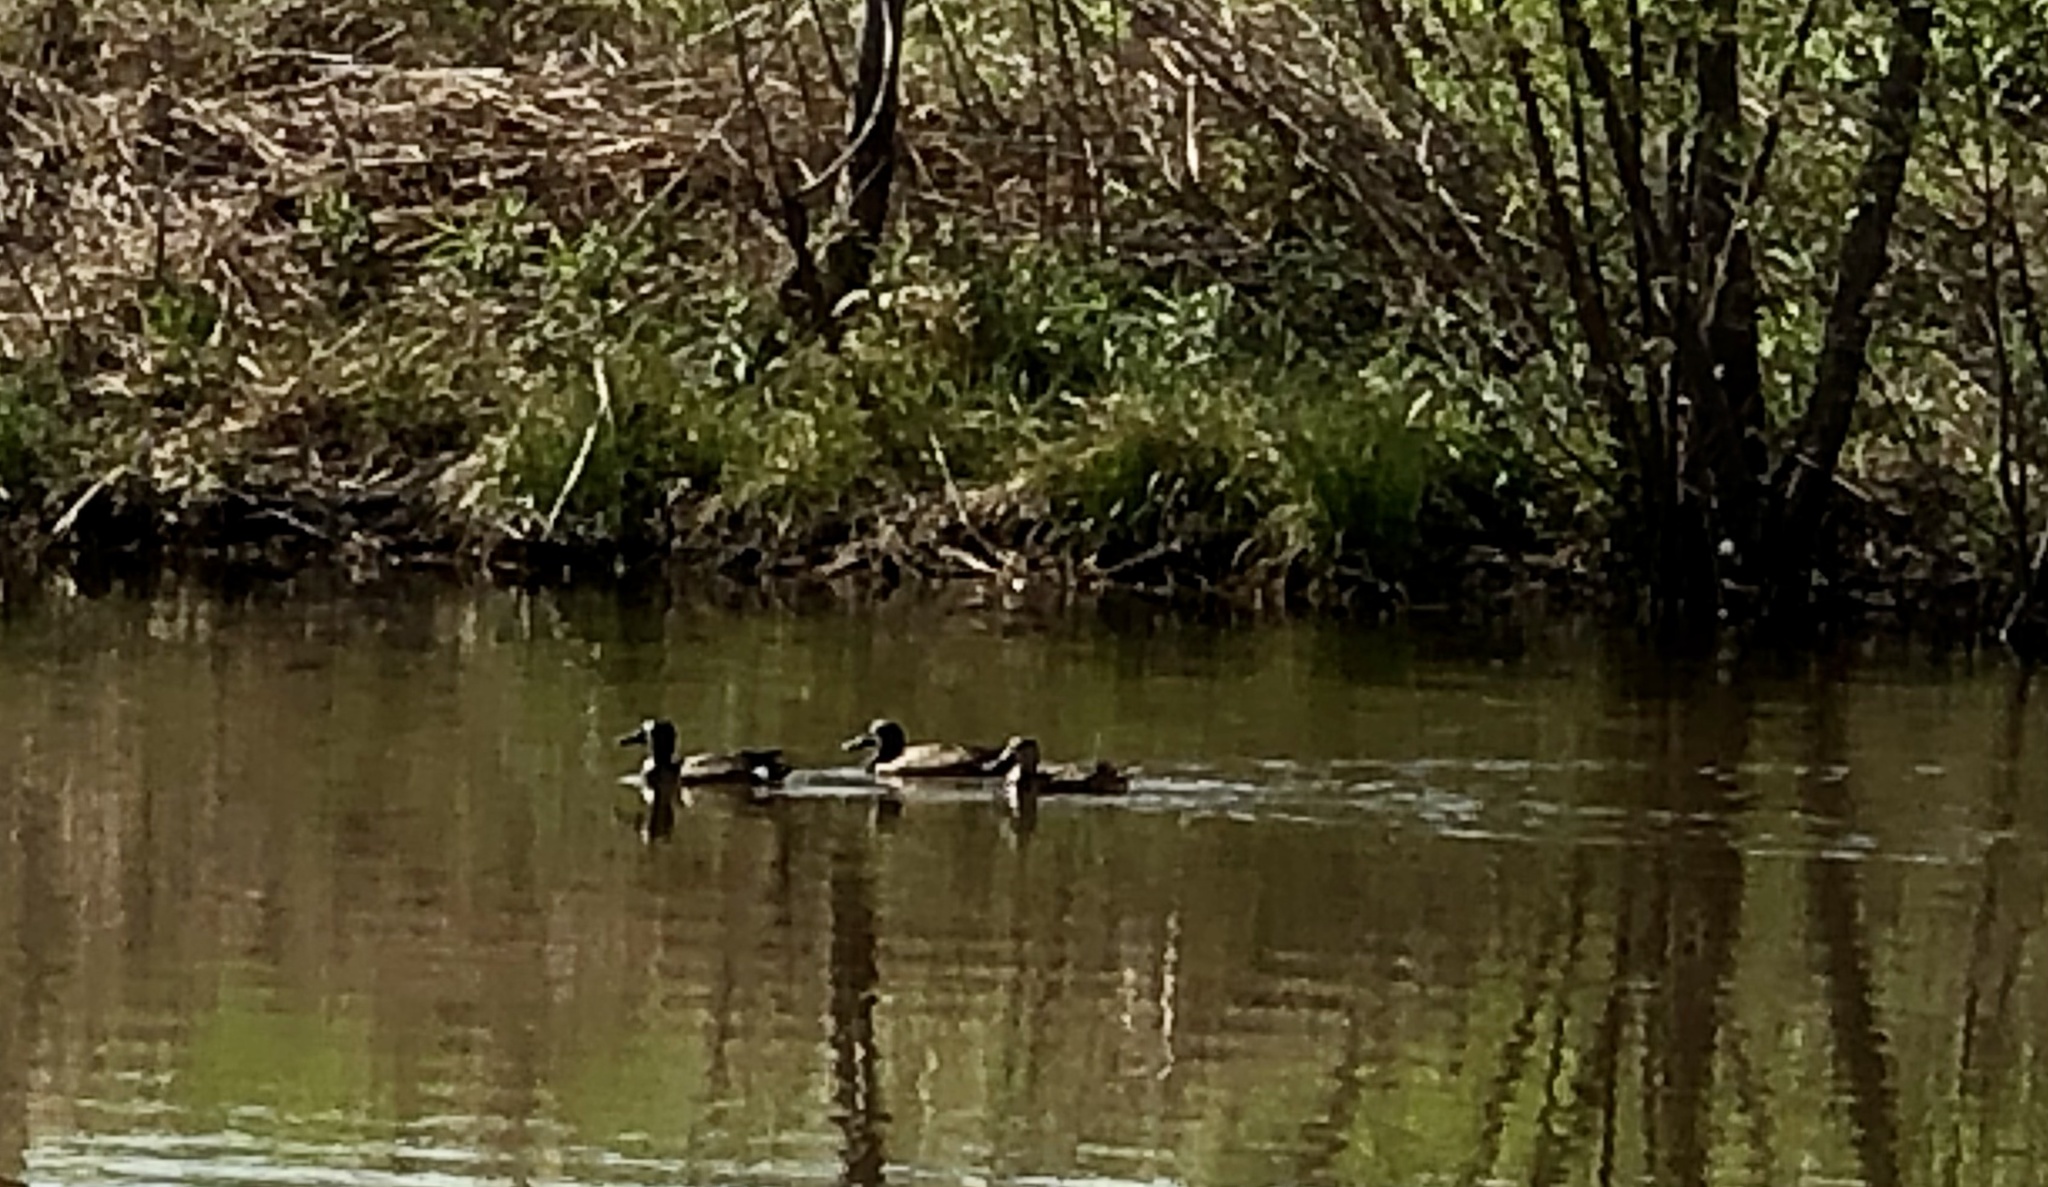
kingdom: Animalia
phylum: Chordata
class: Aves
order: Anseriformes
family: Anatidae
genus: Spatula
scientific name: Spatula discors
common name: Blue-winged teal
